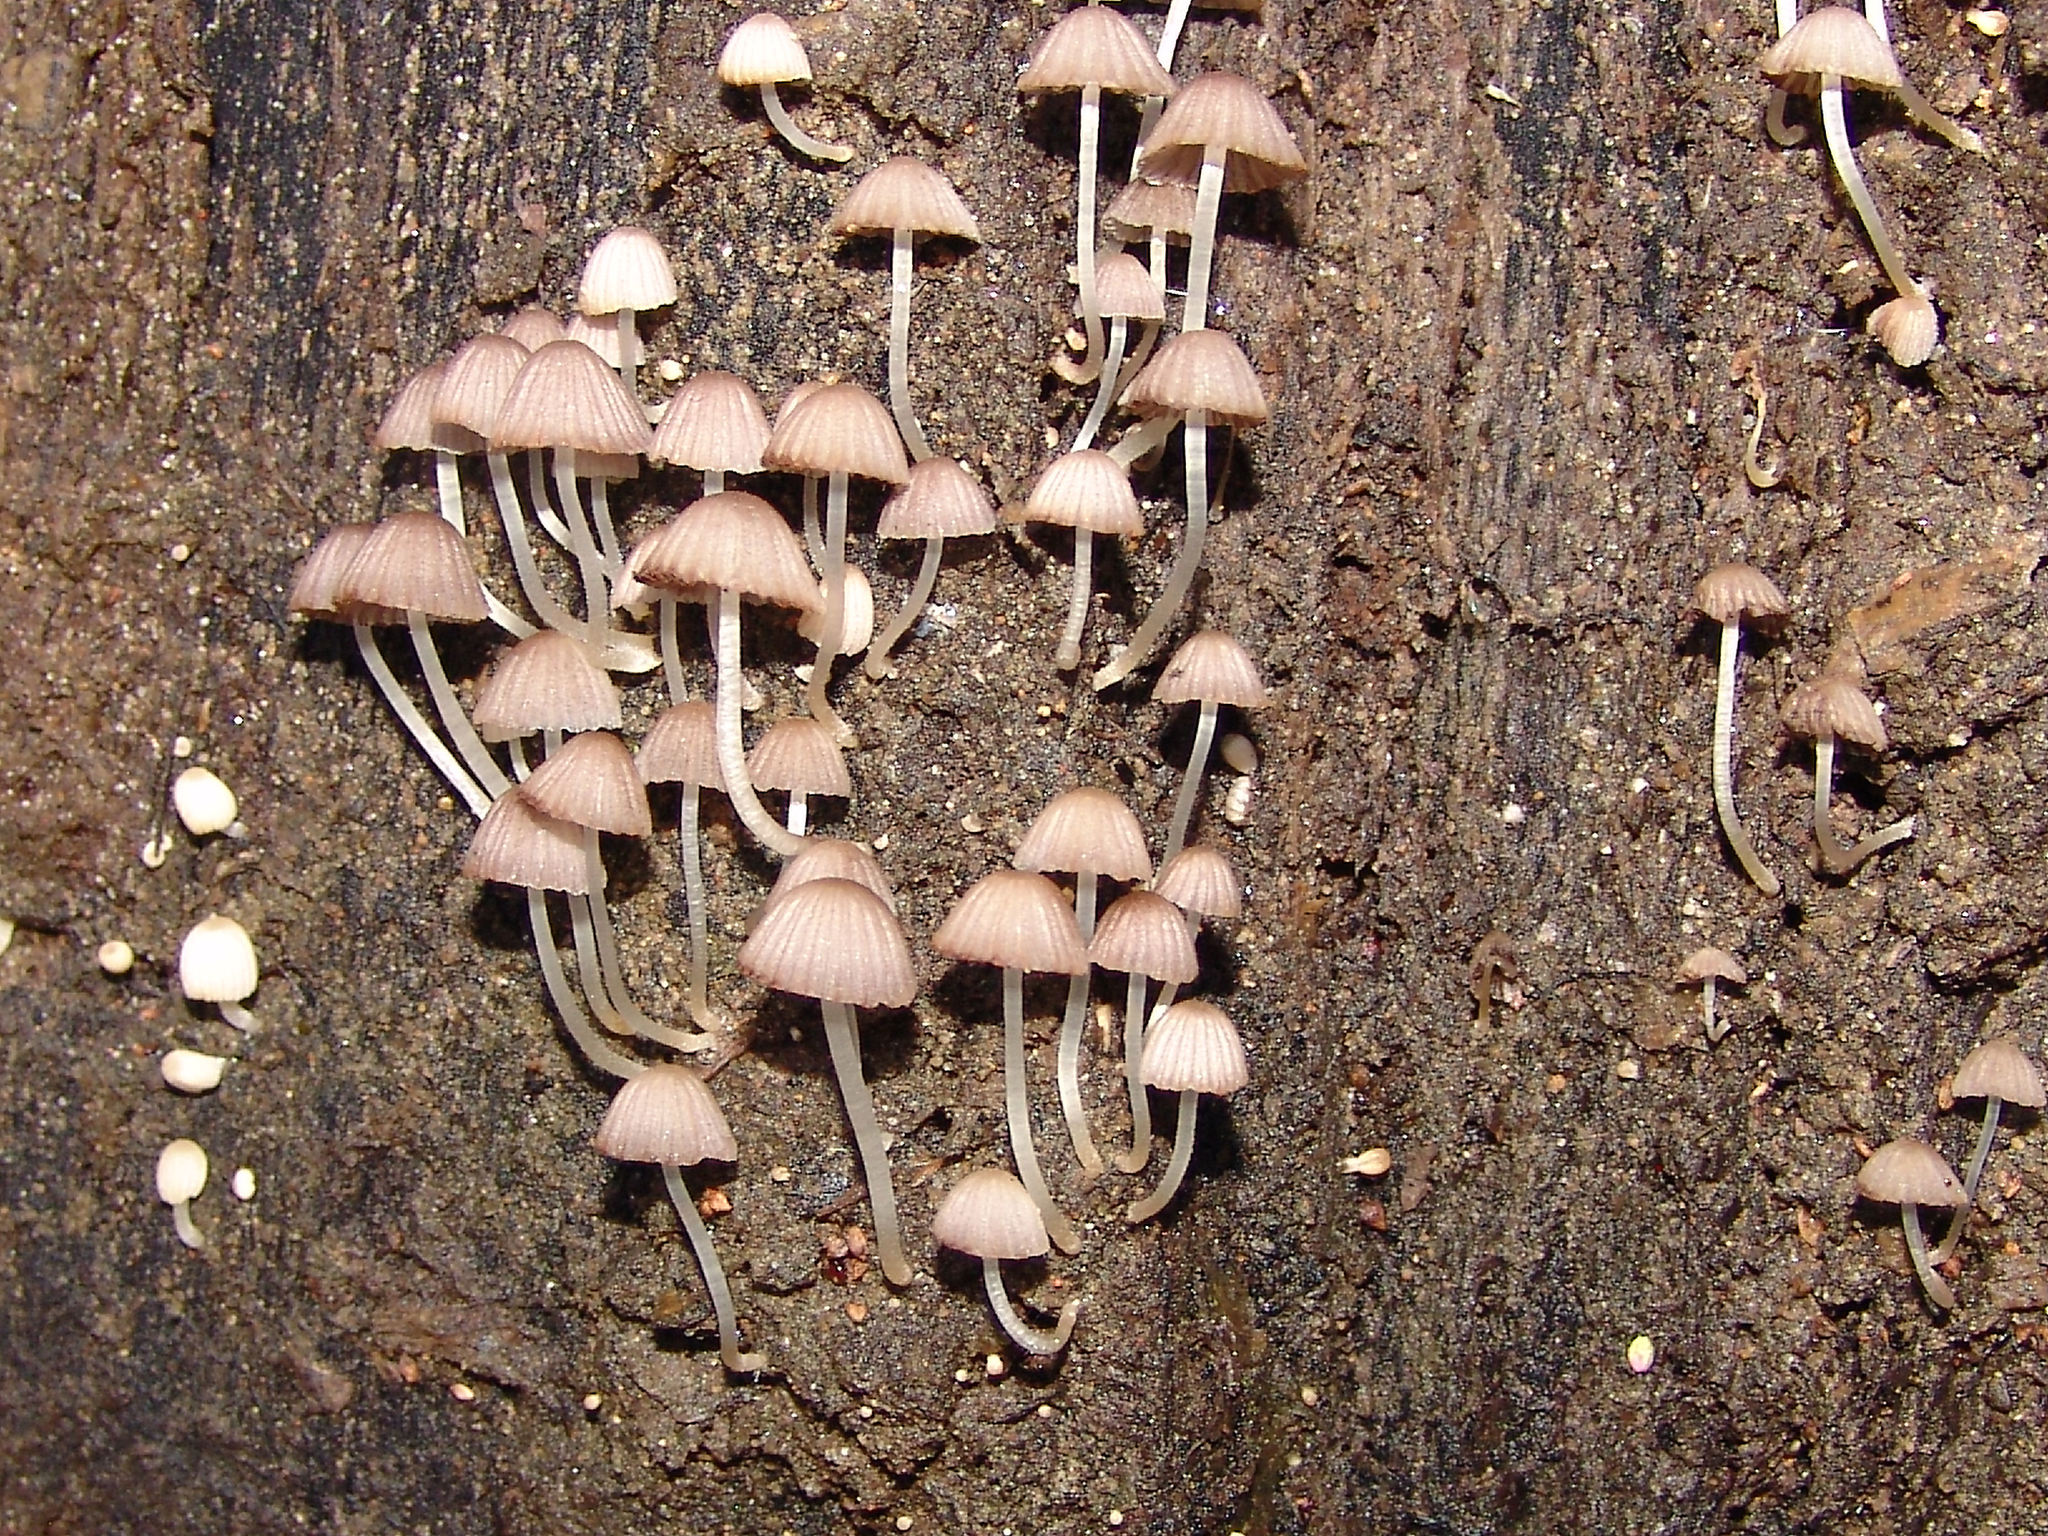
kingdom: Fungi
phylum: Basidiomycota
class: Agaricomycetes
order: Agaricales
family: Psathyrellaceae
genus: Coprinellus
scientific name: Coprinellus disseminatus
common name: Fairies' bonnets
